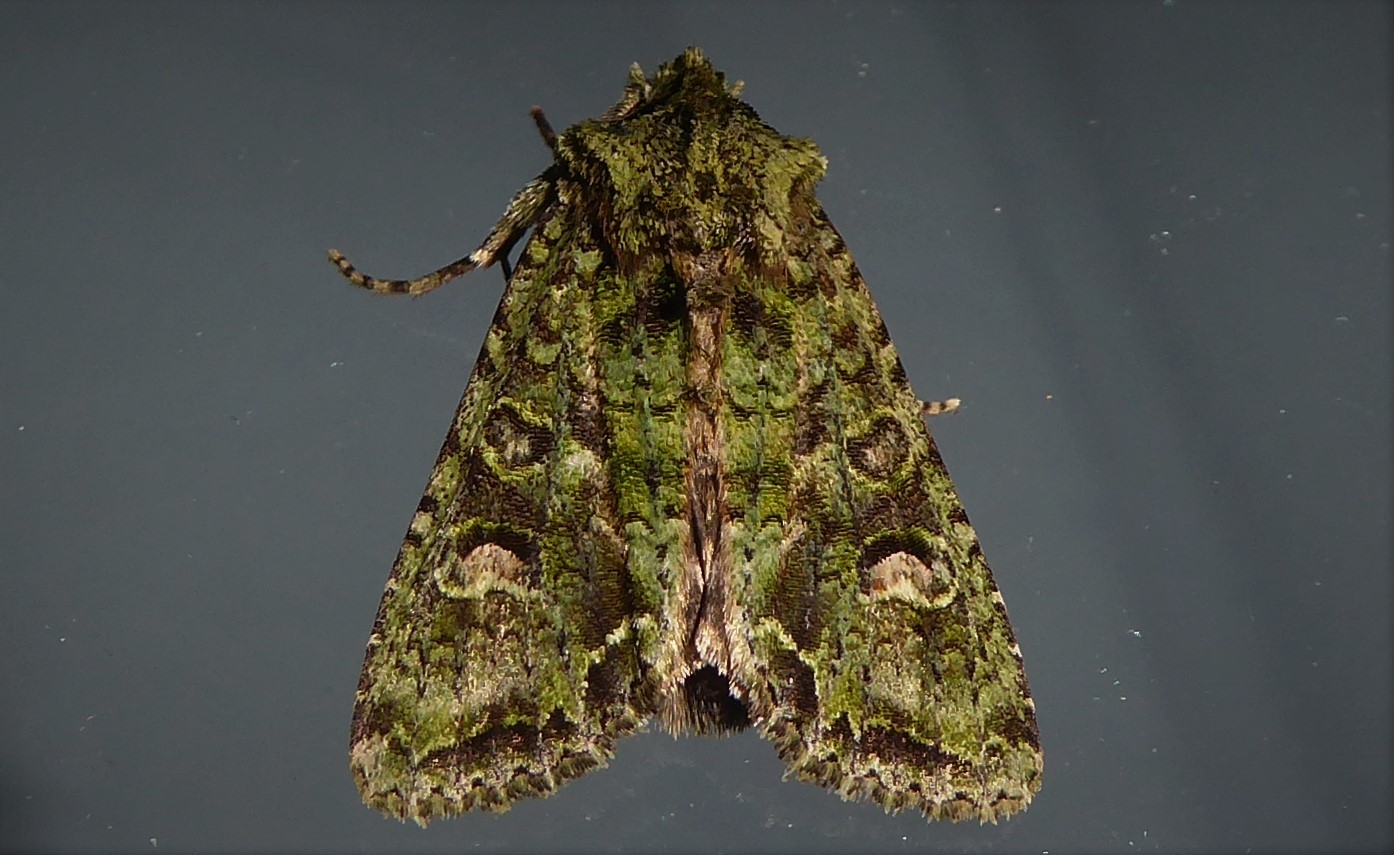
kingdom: Animalia
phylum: Arthropoda
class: Insecta
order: Lepidoptera
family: Noctuidae
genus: Ichneutica
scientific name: Ichneutica
